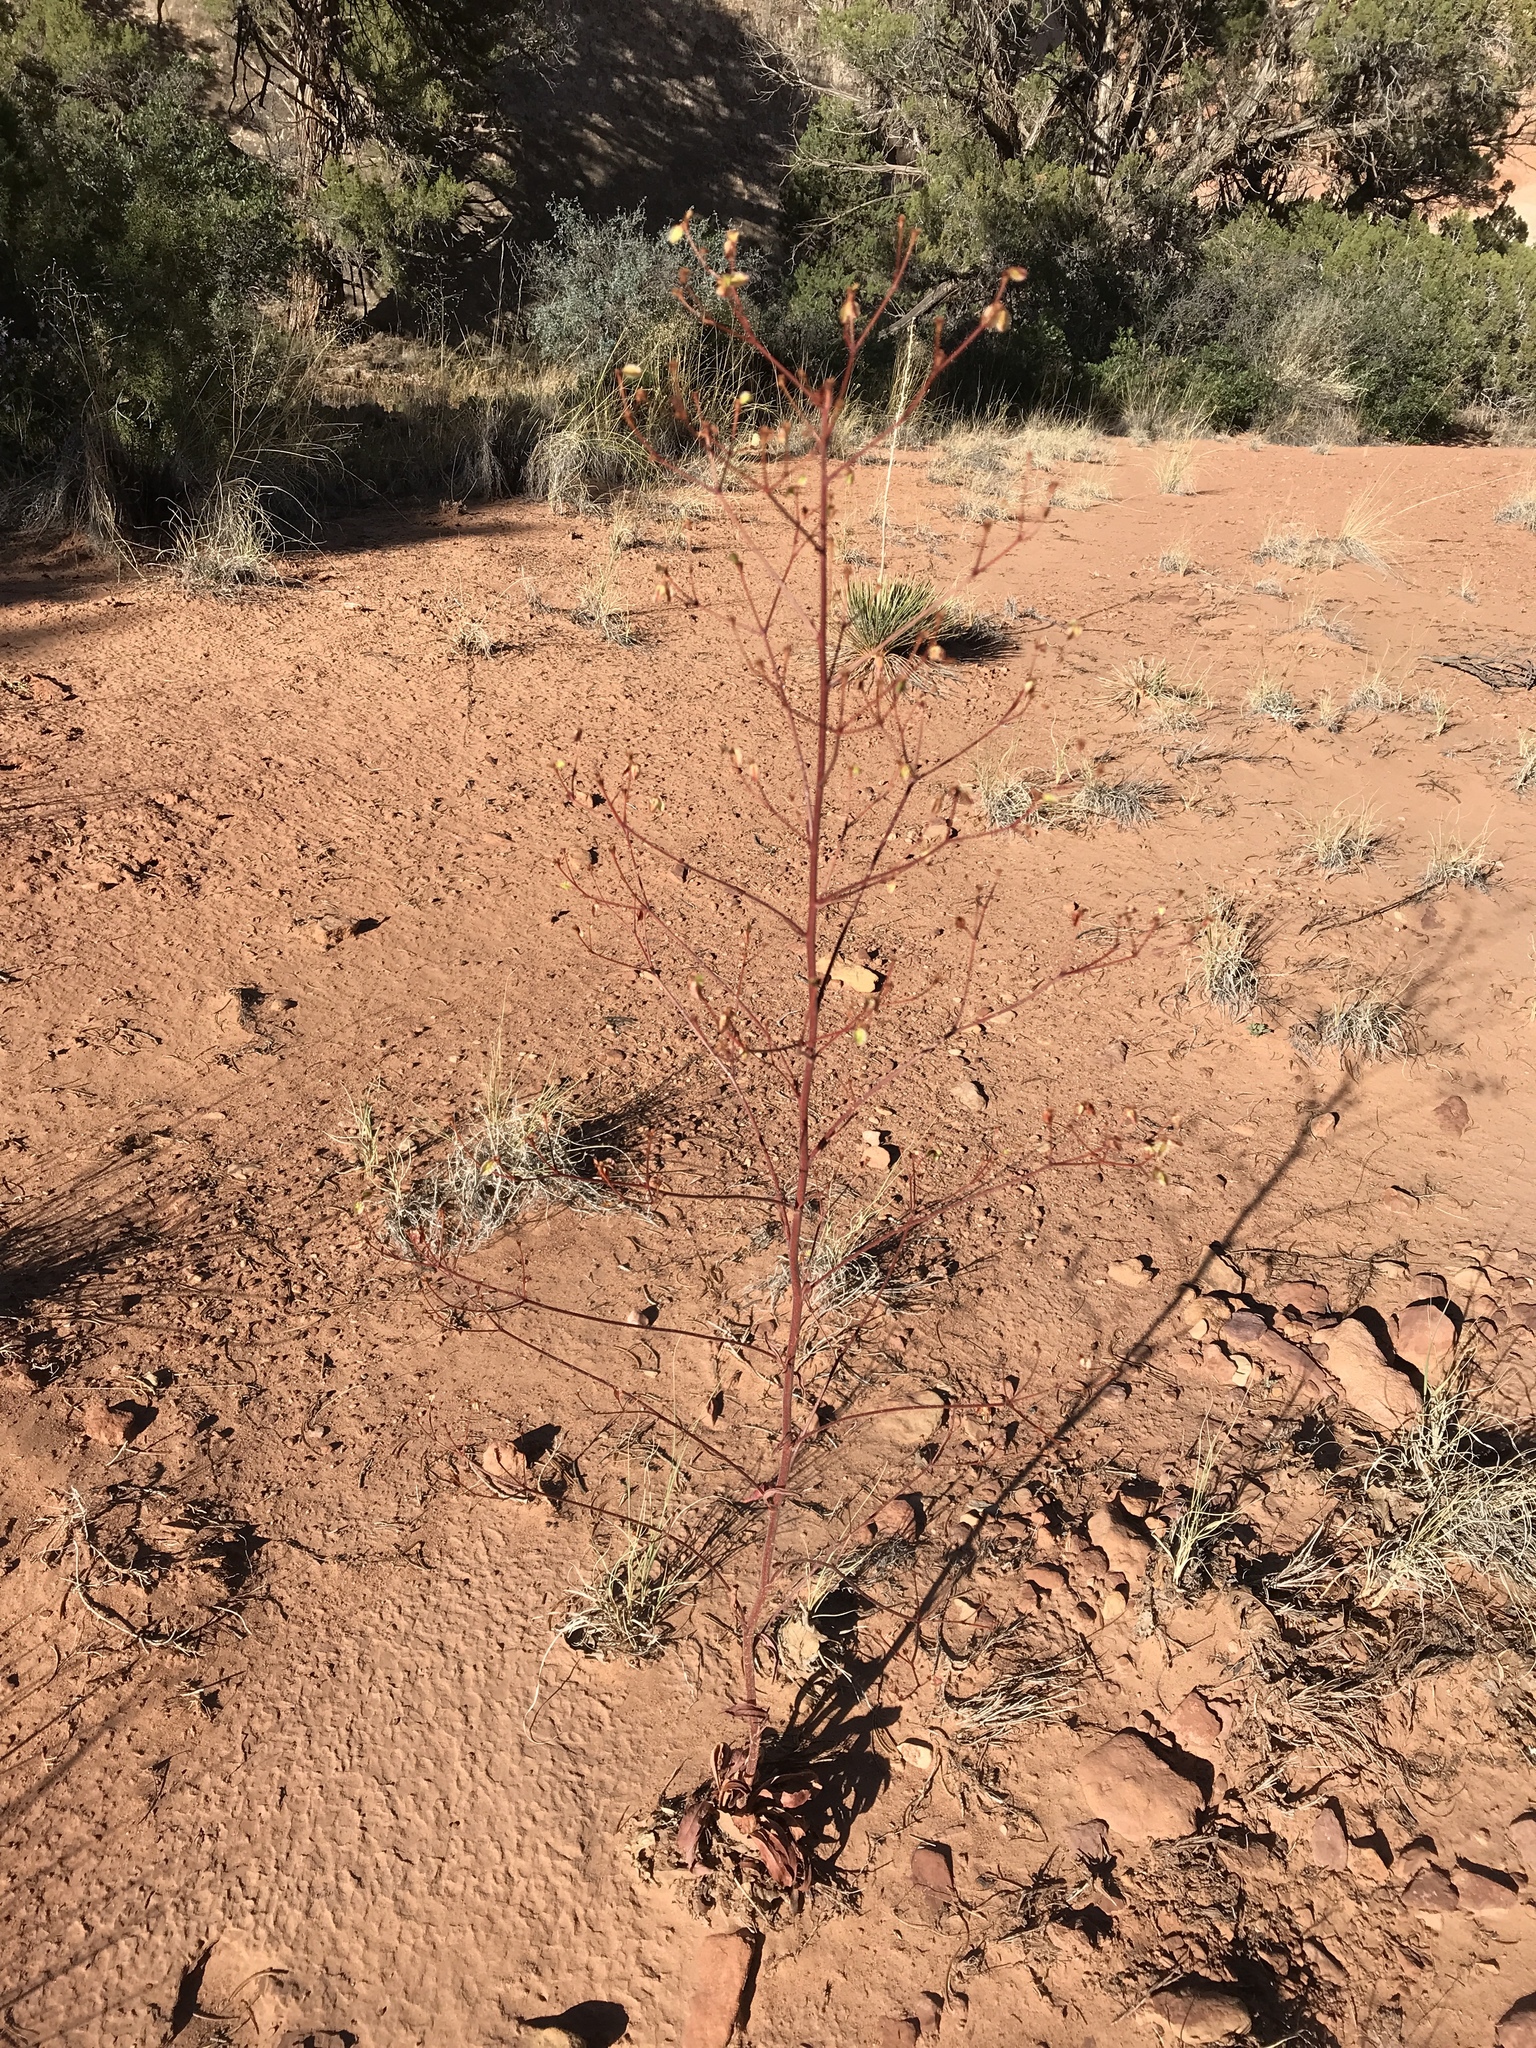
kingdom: Plantae
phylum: Tracheophyta
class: Magnoliopsida
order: Caryophyllales
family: Polygonaceae
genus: Eriogonum
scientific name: Eriogonum alatum
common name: Winged eriogonum
